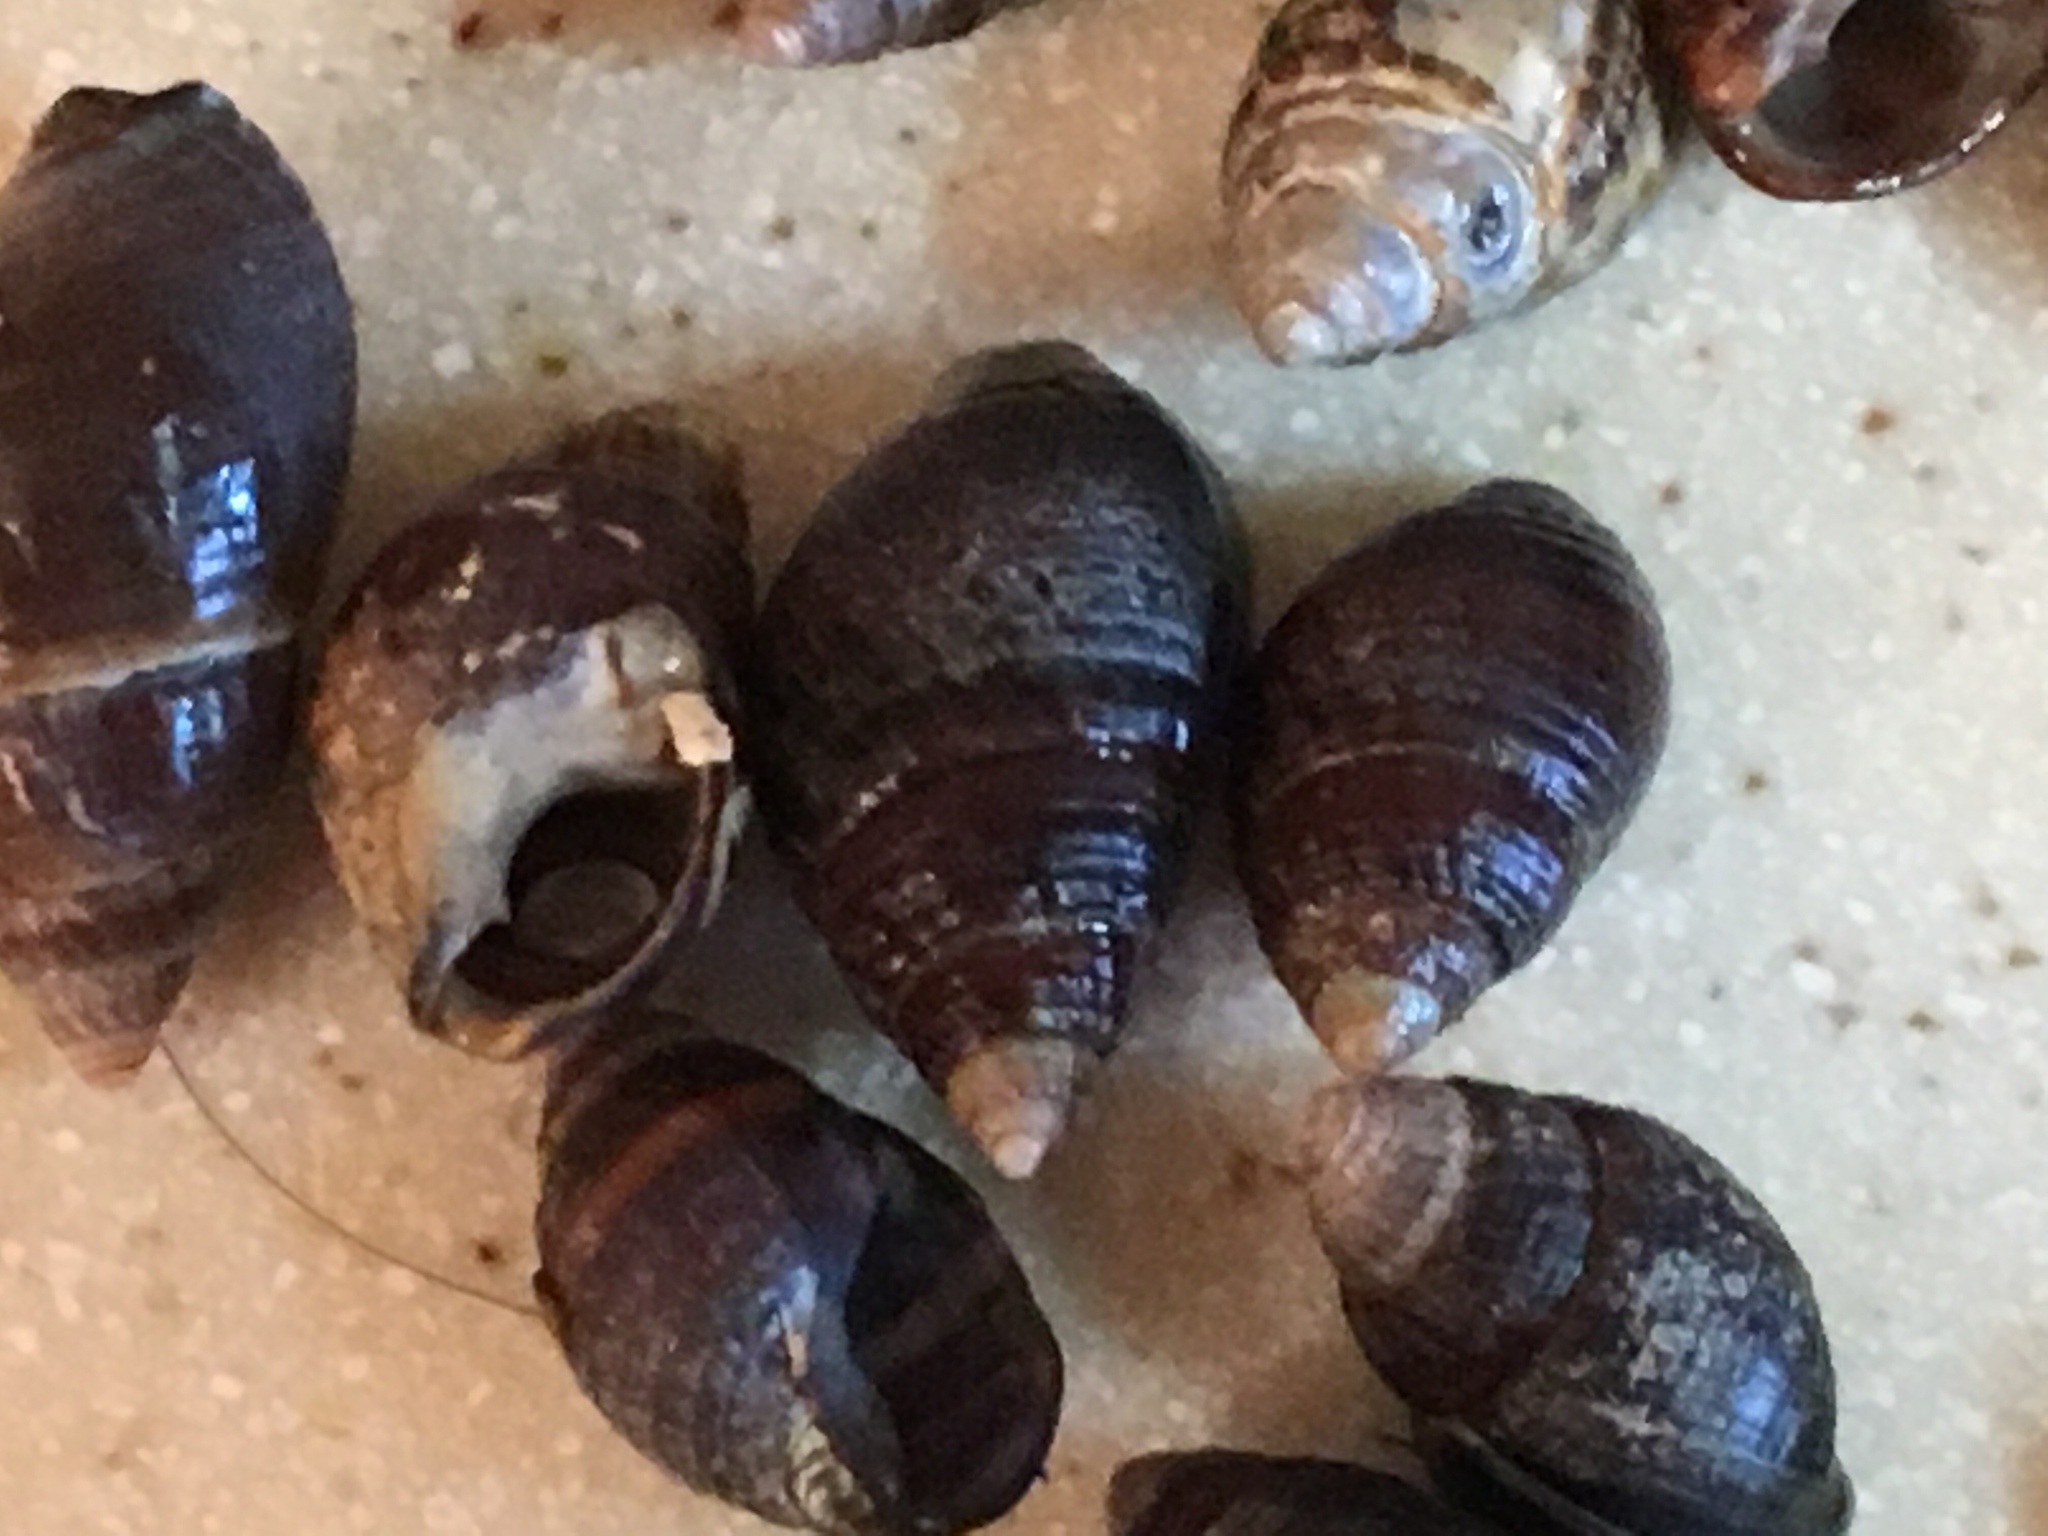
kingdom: Animalia
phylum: Mollusca
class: Gastropoda
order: Neogastropoda
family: Nassariidae
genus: Ilyanassa
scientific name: Ilyanassa obsoleta
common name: Eastern mudsnail
